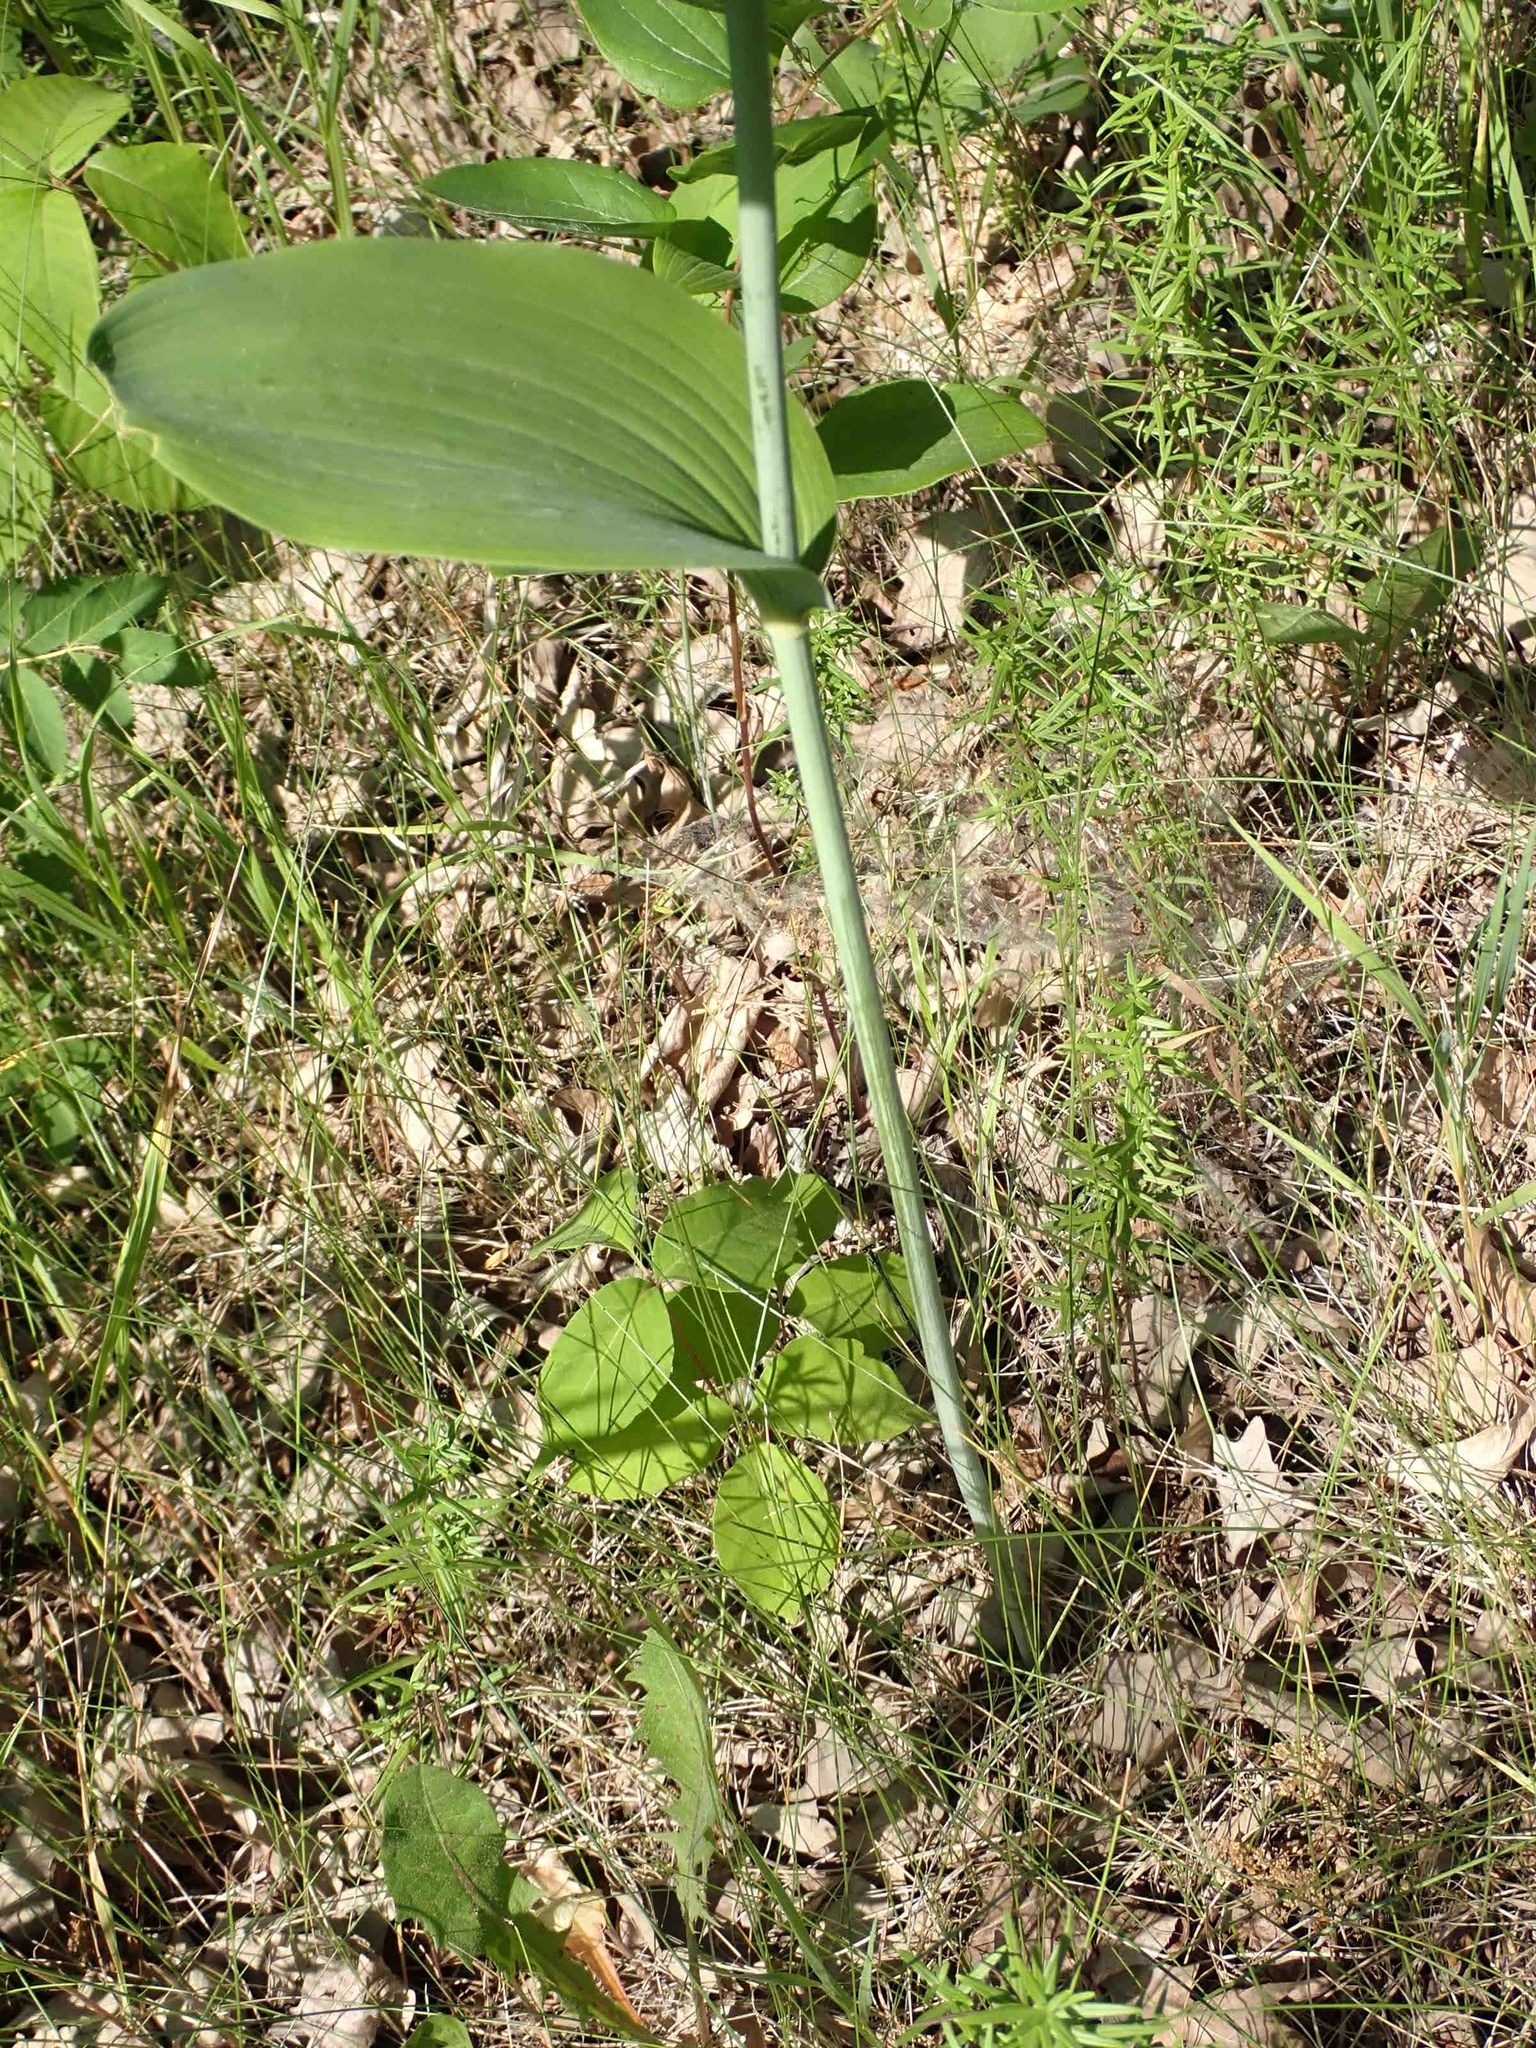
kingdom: Plantae
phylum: Tracheophyta
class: Liliopsida
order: Asparagales
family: Asparagaceae
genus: Polygonatum
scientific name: Polygonatum biflorum
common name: American solomon's-seal
